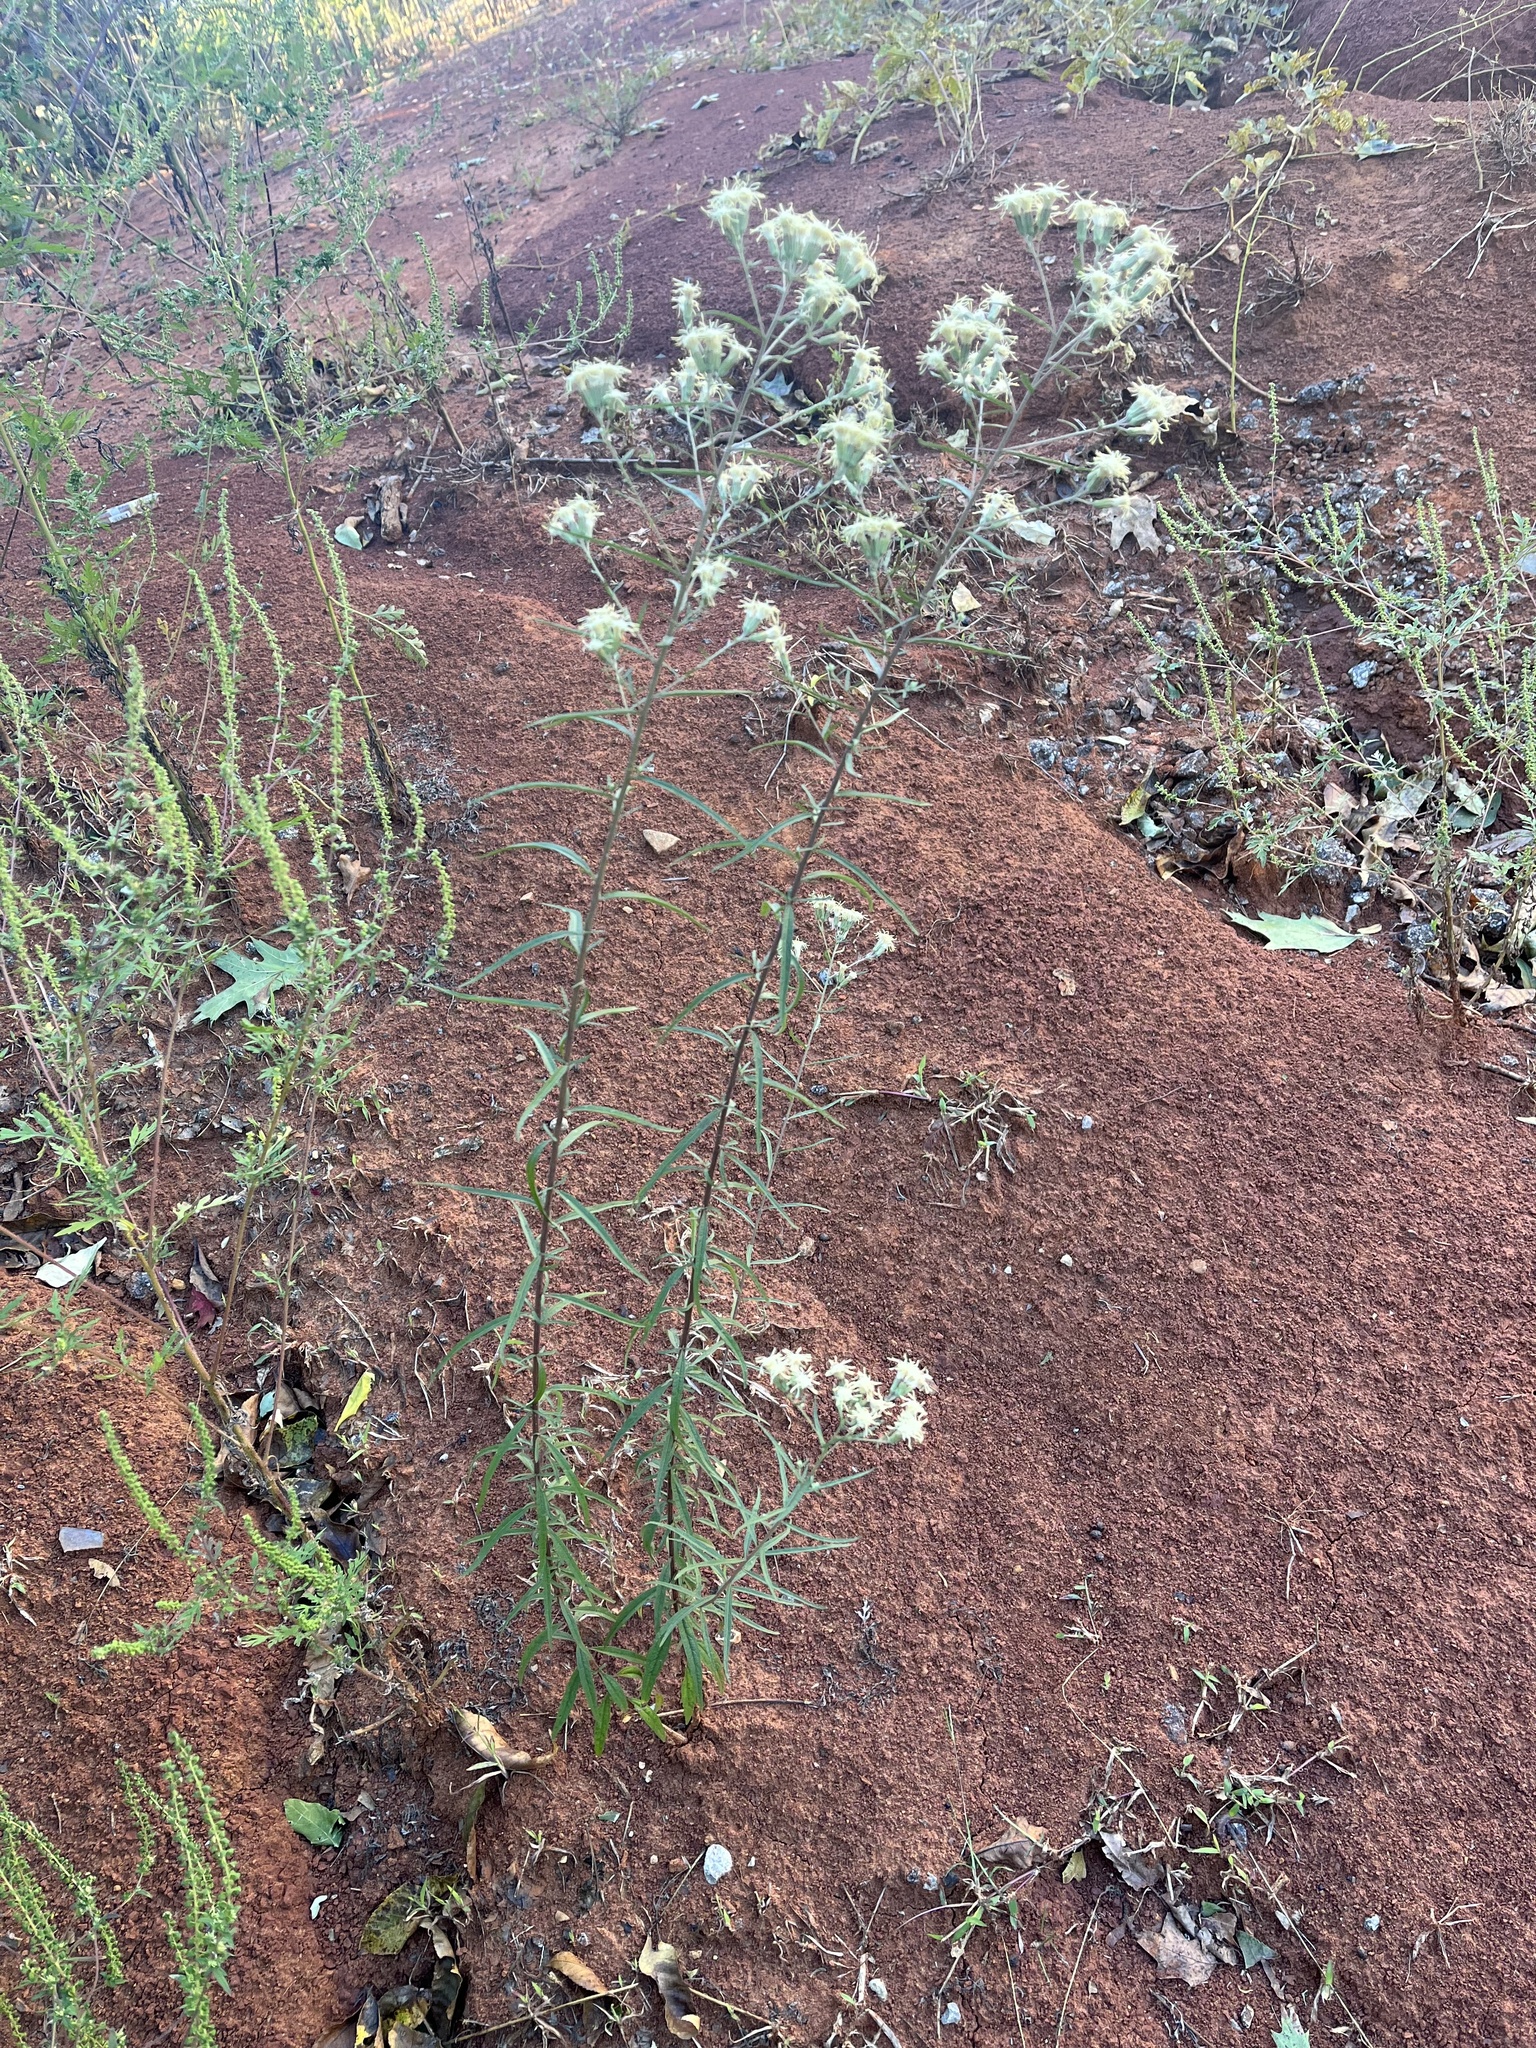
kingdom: Plantae
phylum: Tracheophyta
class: Magnoliopsida
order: Asterales
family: Asteraceae
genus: Brickellia
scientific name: Brickellia eupatorioides
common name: False boneset
